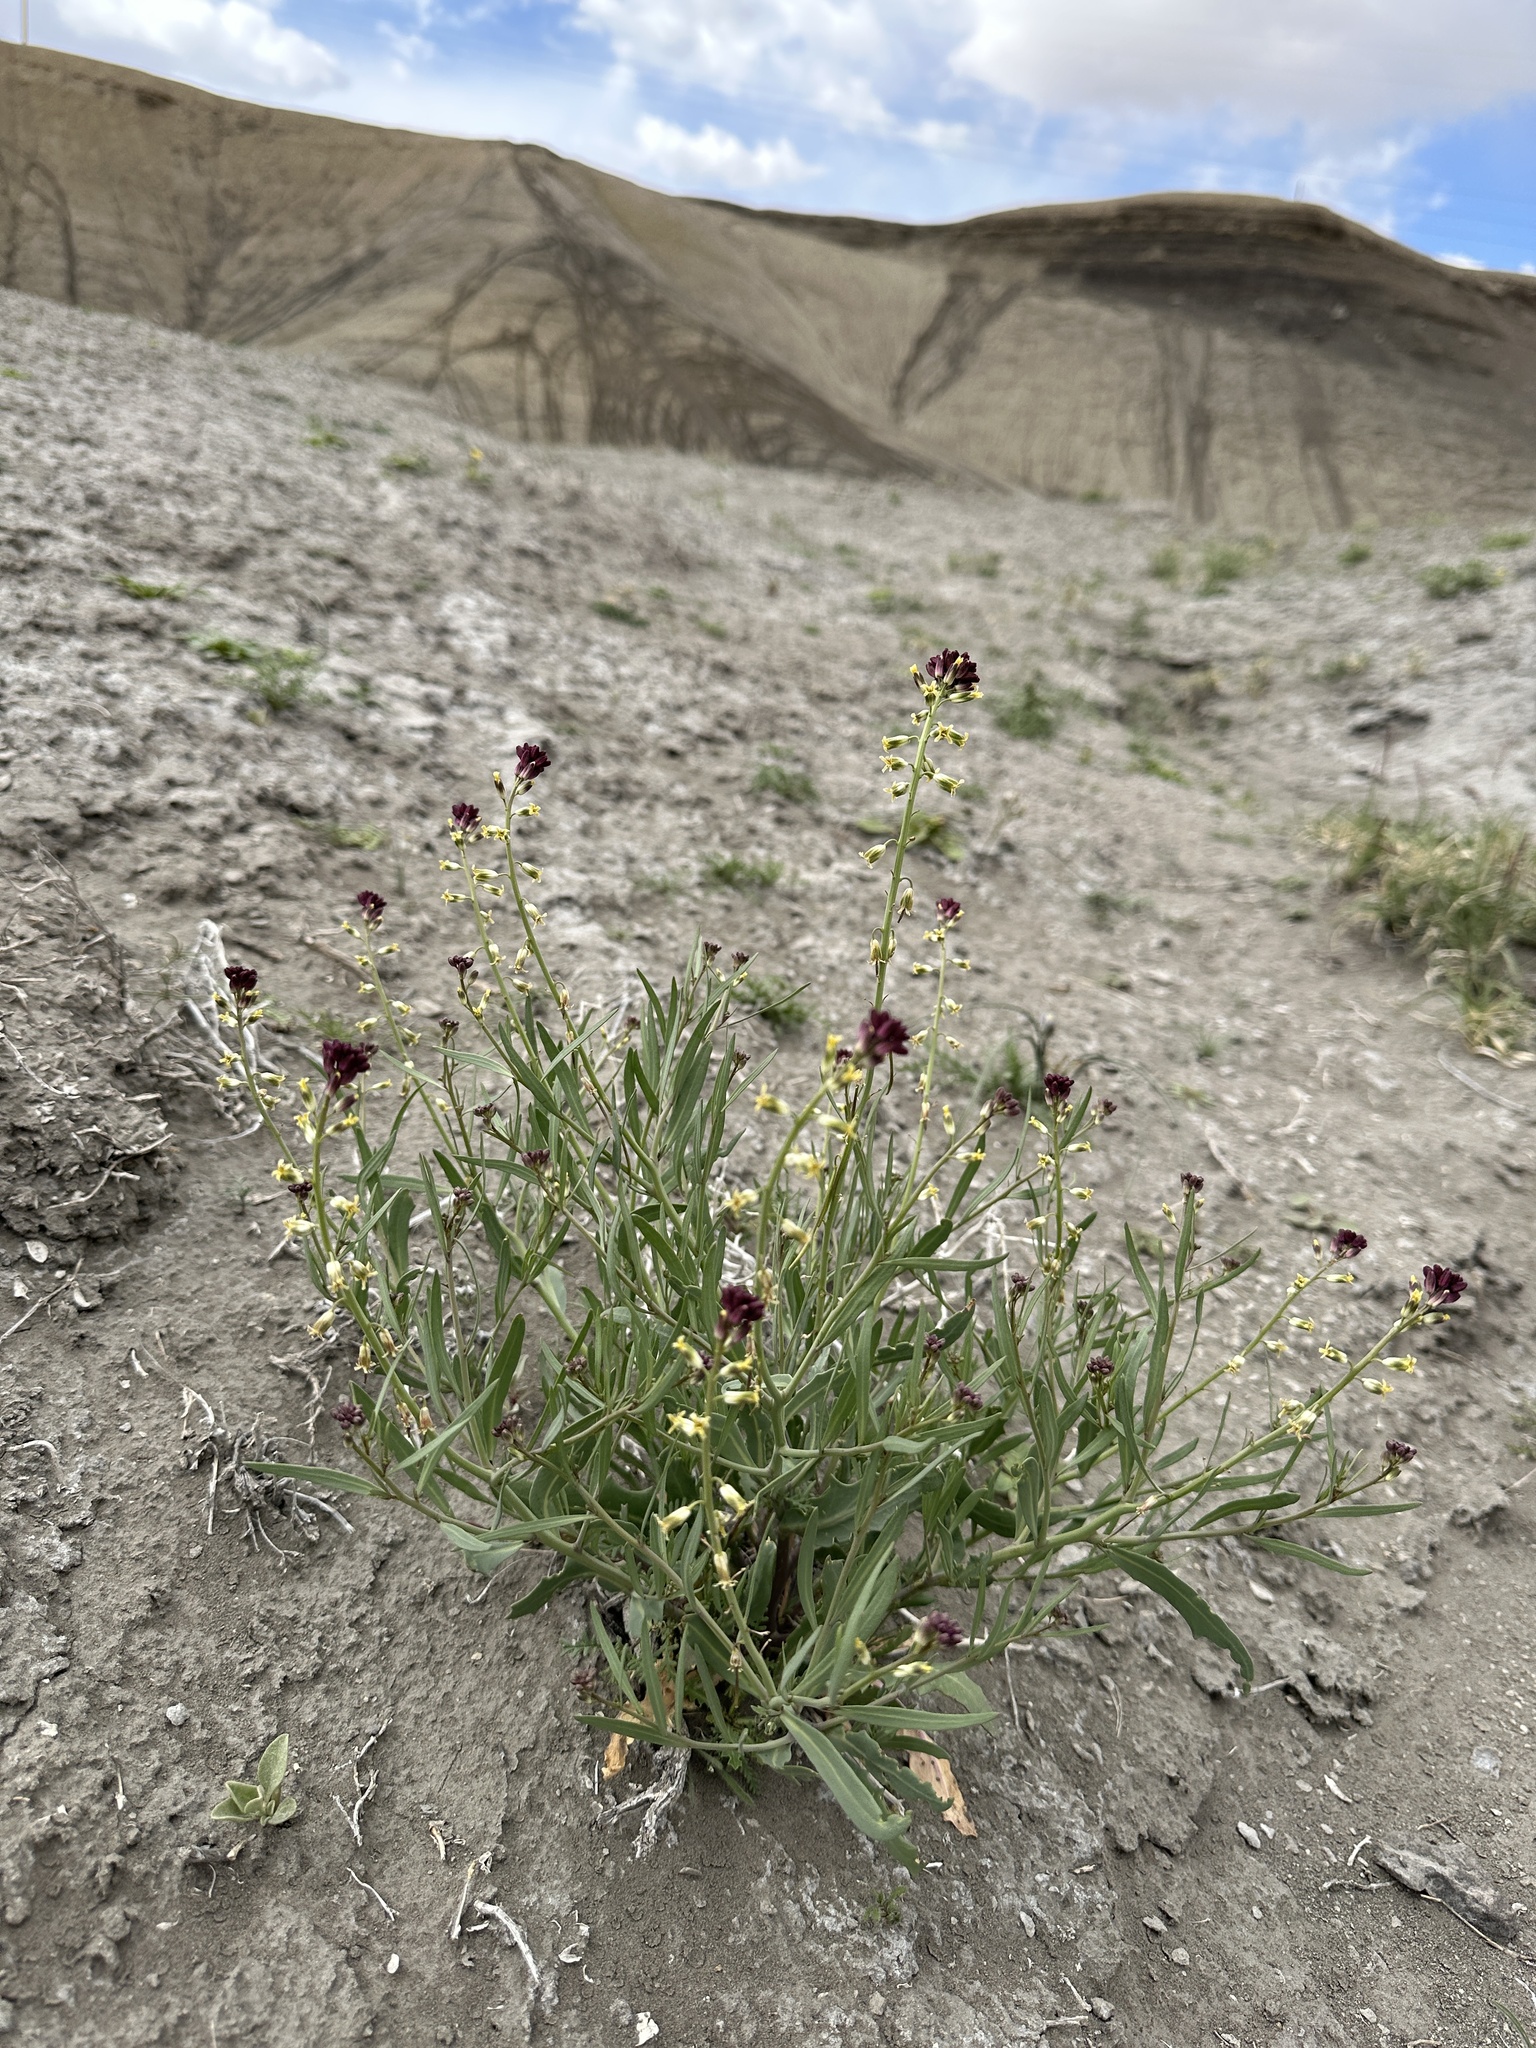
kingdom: Plantae
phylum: Tracheophyta
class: Magnoliopsida
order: Brassicales
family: Brassicaceae
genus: Streptanthus
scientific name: Streptanthus longirostris
